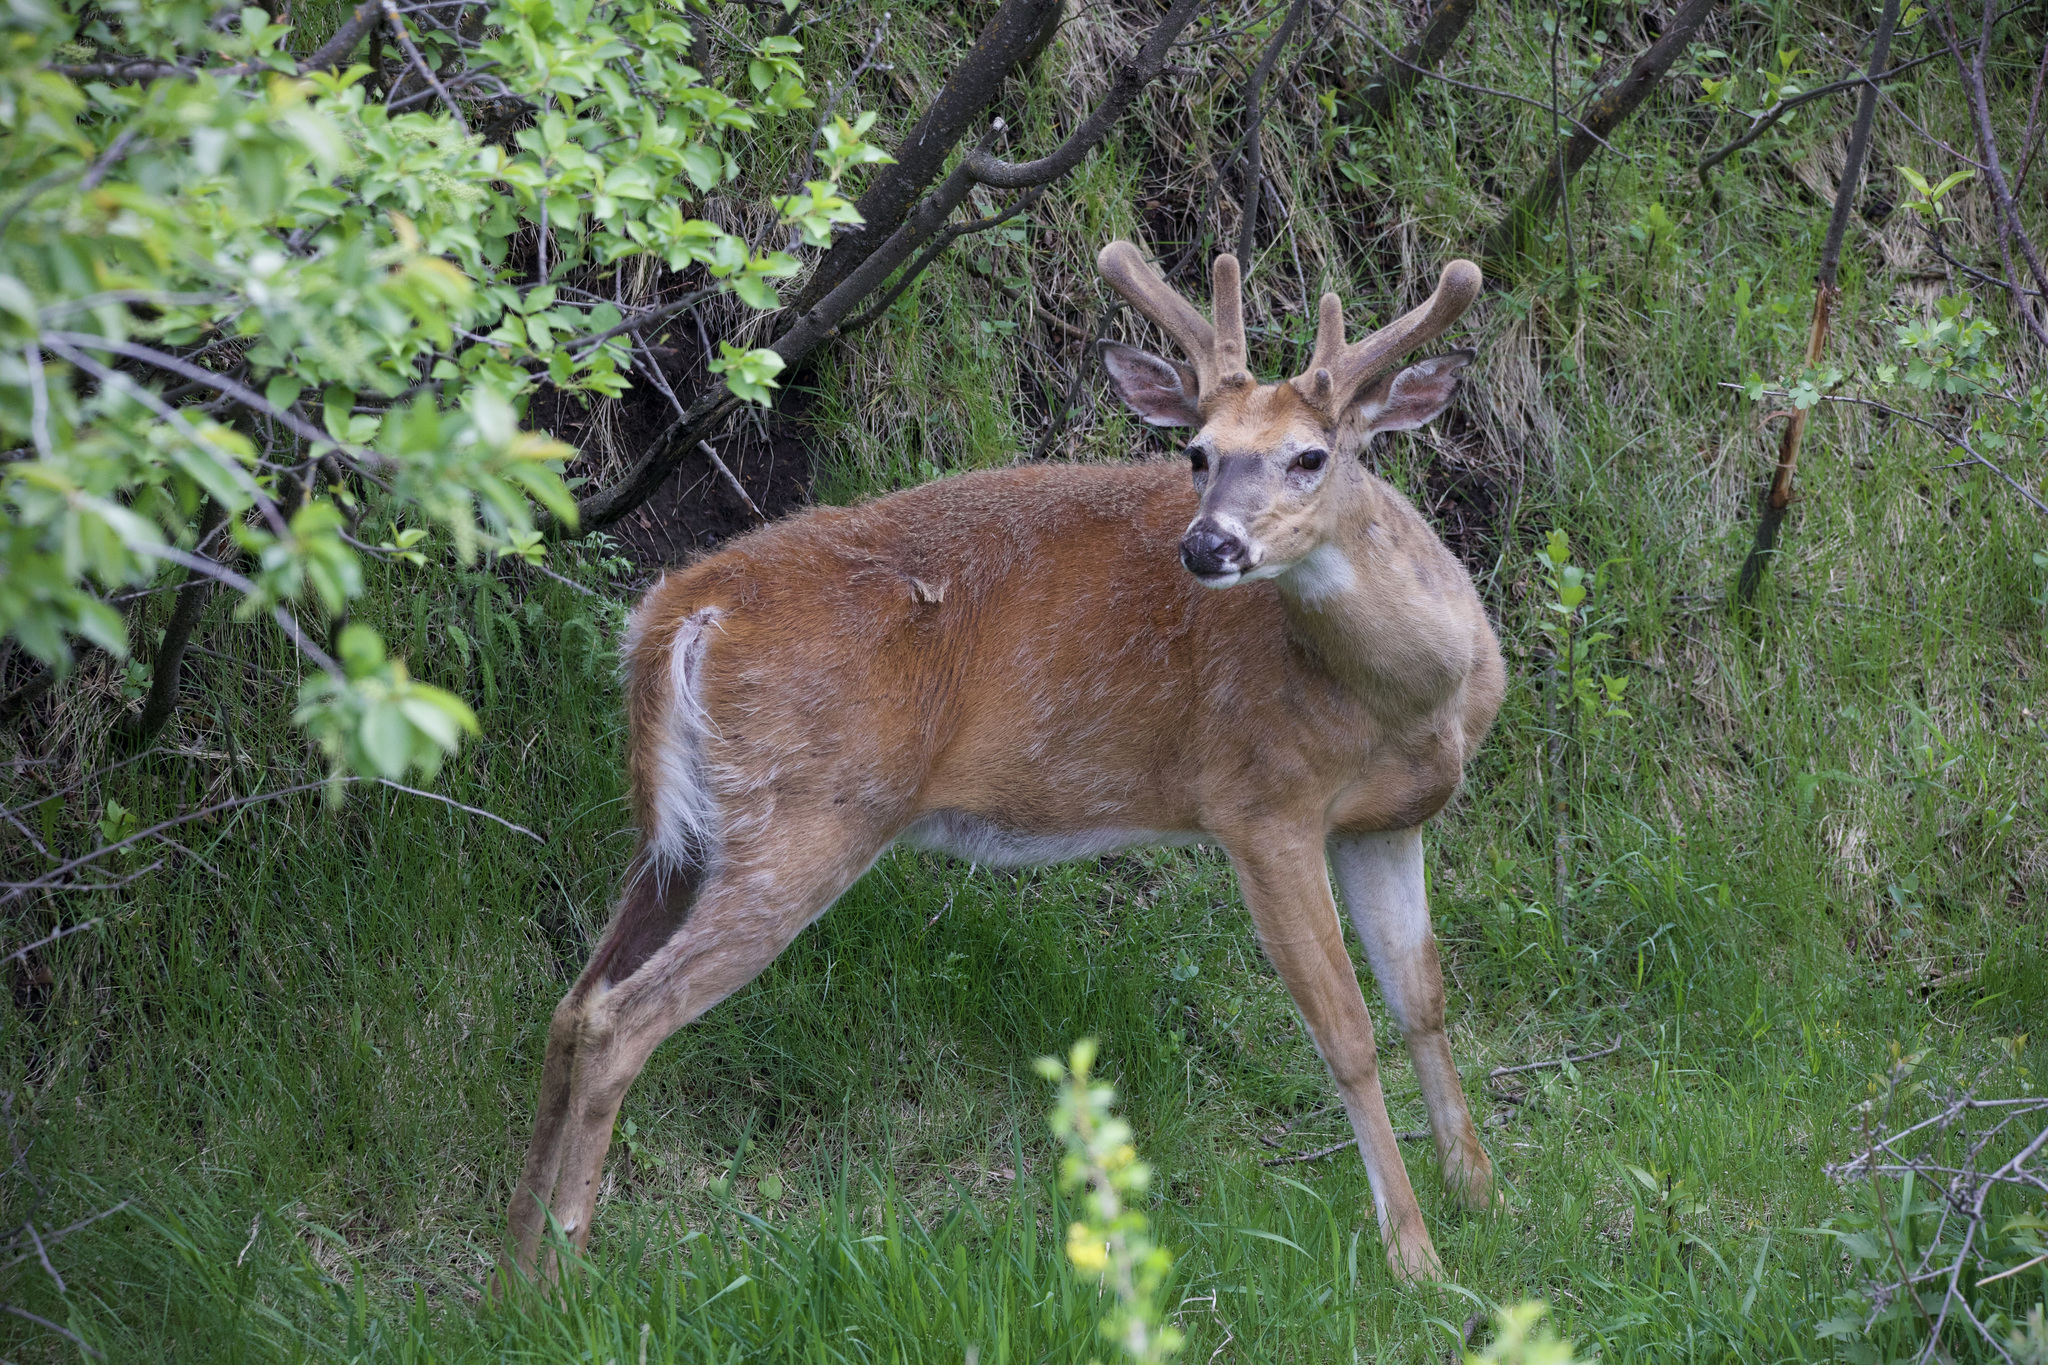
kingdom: Animalia
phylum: Chordata
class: Mammalia
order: Artiodactyla
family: Cervidae
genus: Odocoileus
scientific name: Odocoileus virginianus
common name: White-tailed deer
